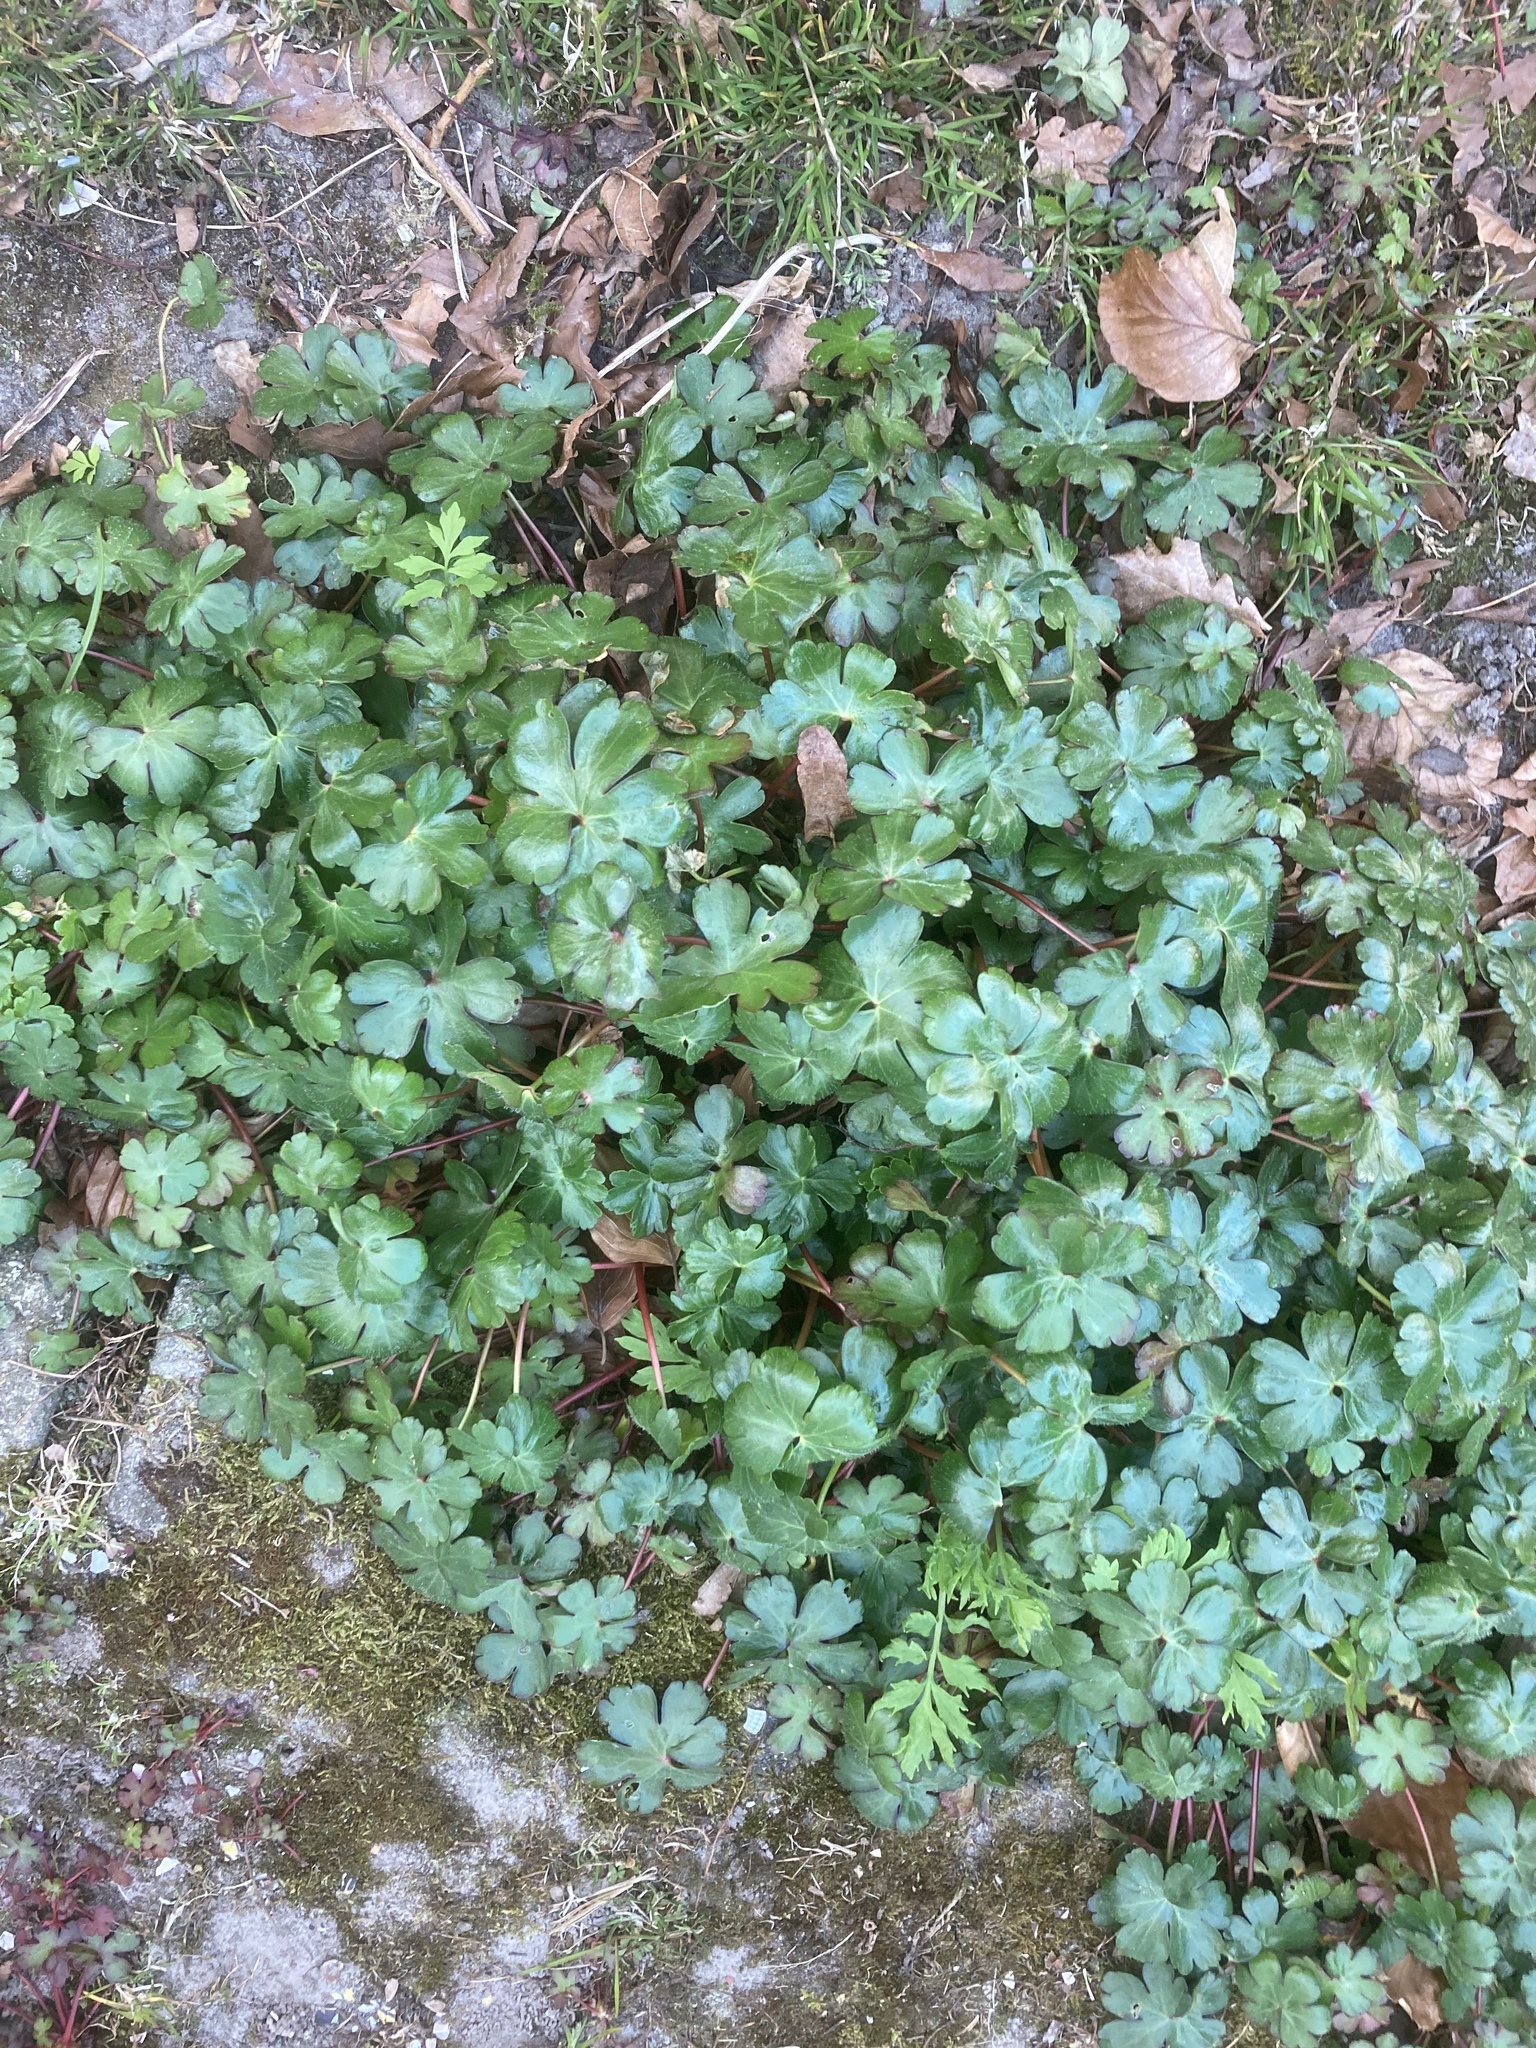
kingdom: Plantae
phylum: Tracheophyta
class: Magnoliopsida
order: Geraniales
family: Geraniaceae
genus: Geranium
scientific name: Geranium lucidum
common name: Shining crane's-bill
